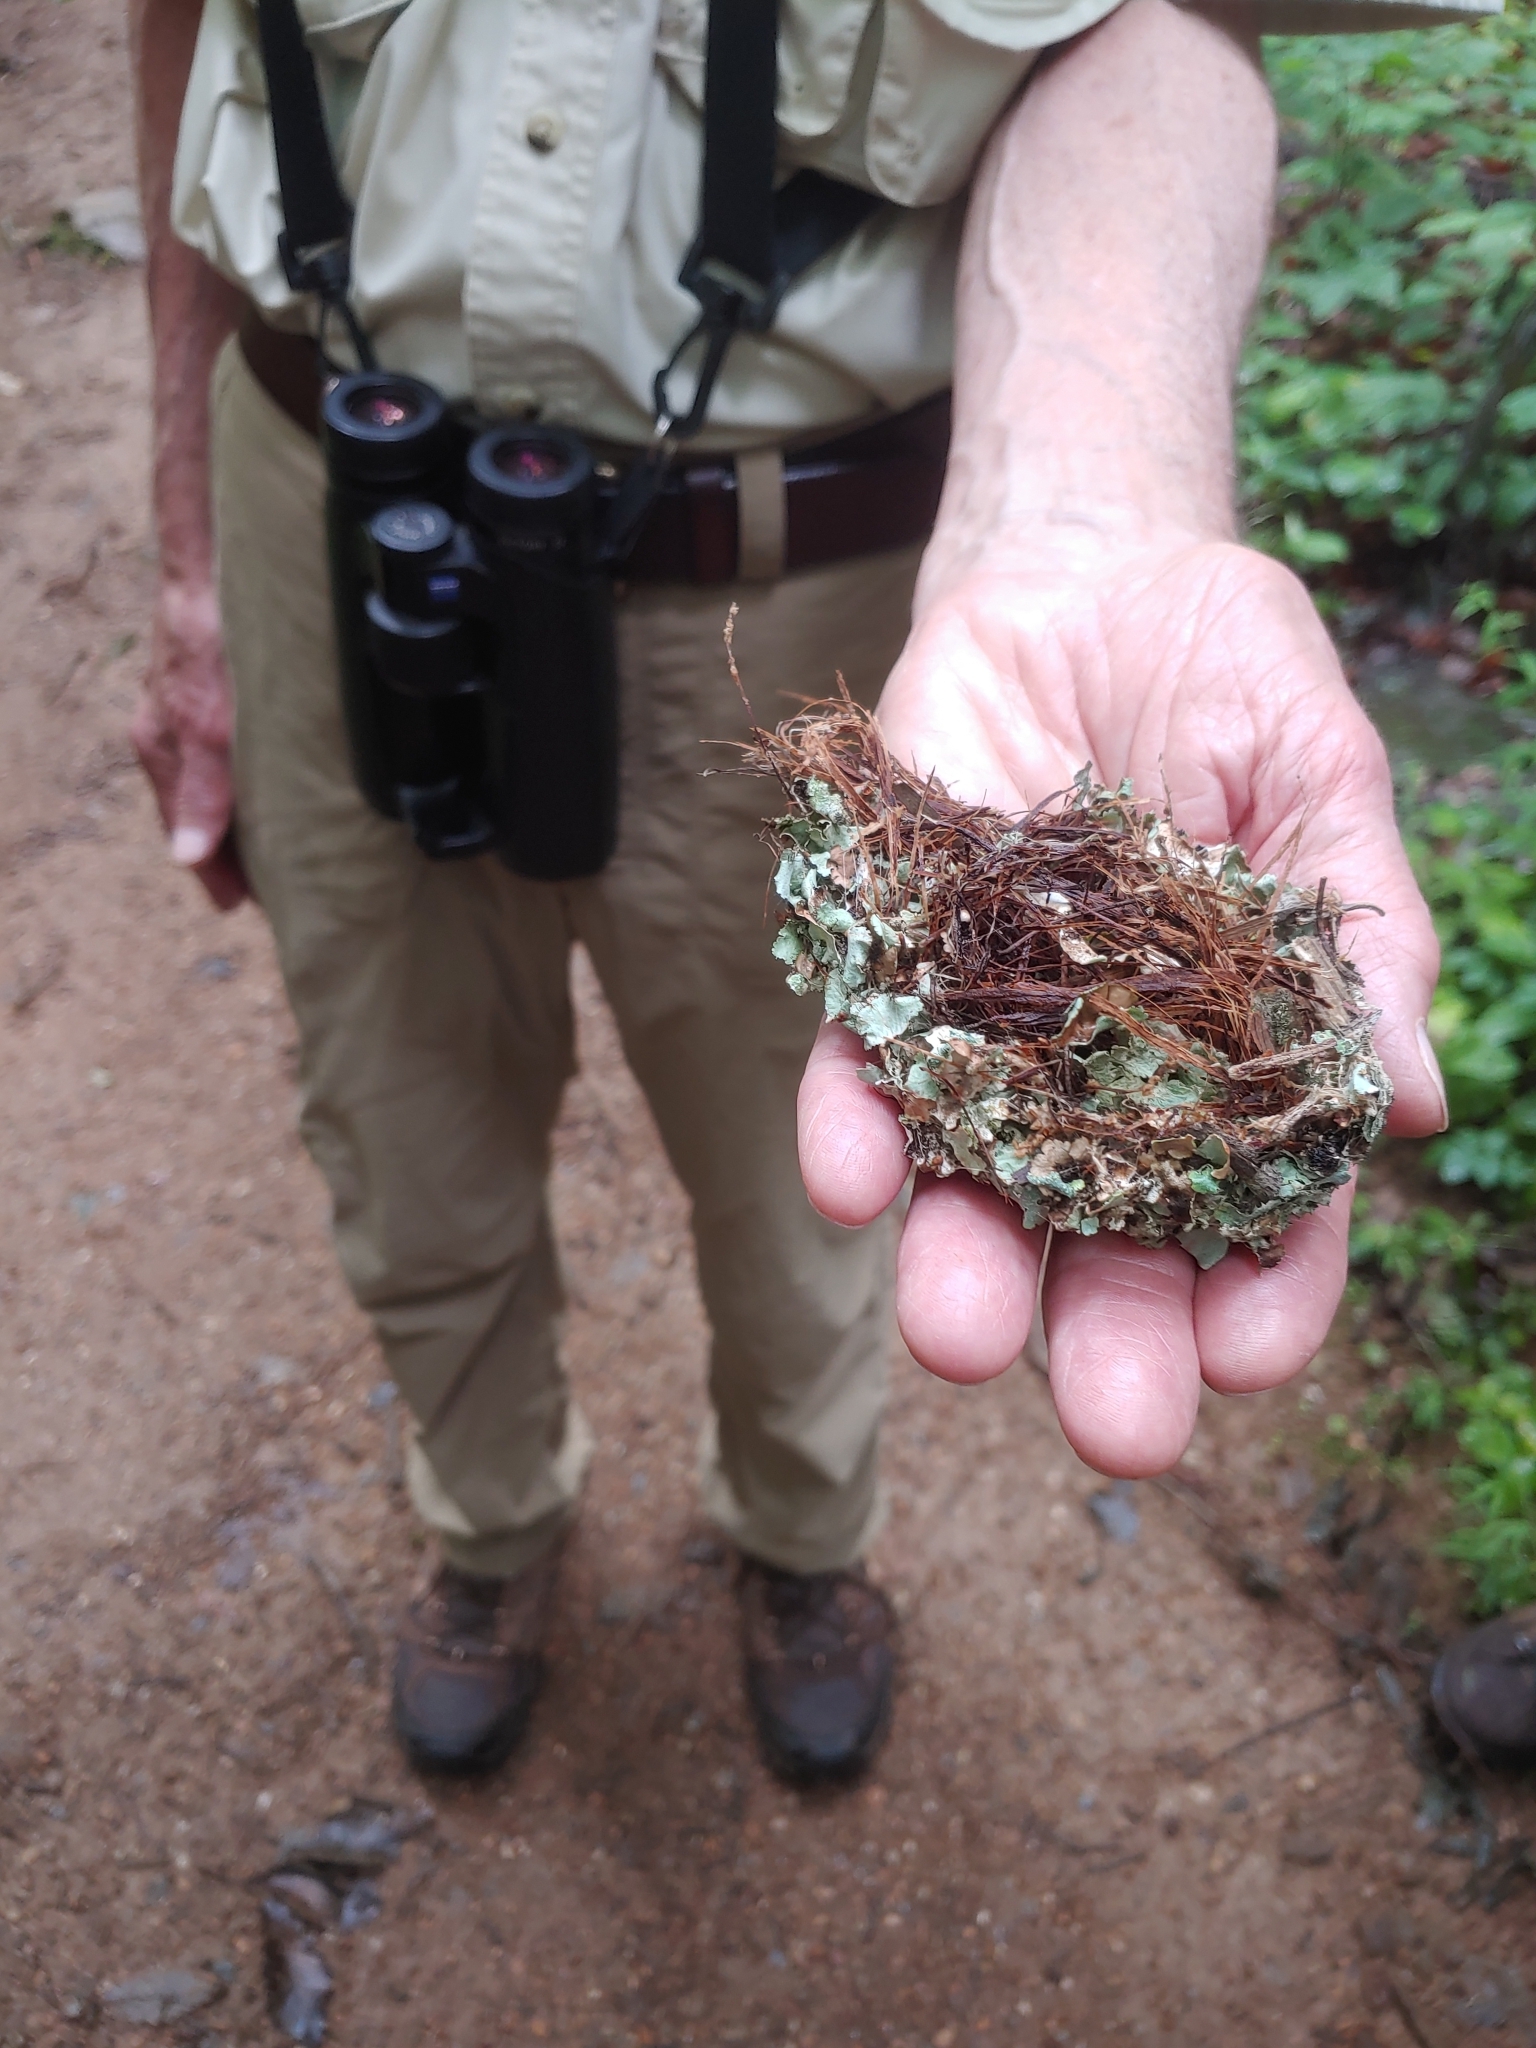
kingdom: Animalia
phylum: Chordata
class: Aves
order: Passeriformes
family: Polioptilidae
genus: Polioptila
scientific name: Polioptila caerulea
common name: Blue-gray gnatcatcher
